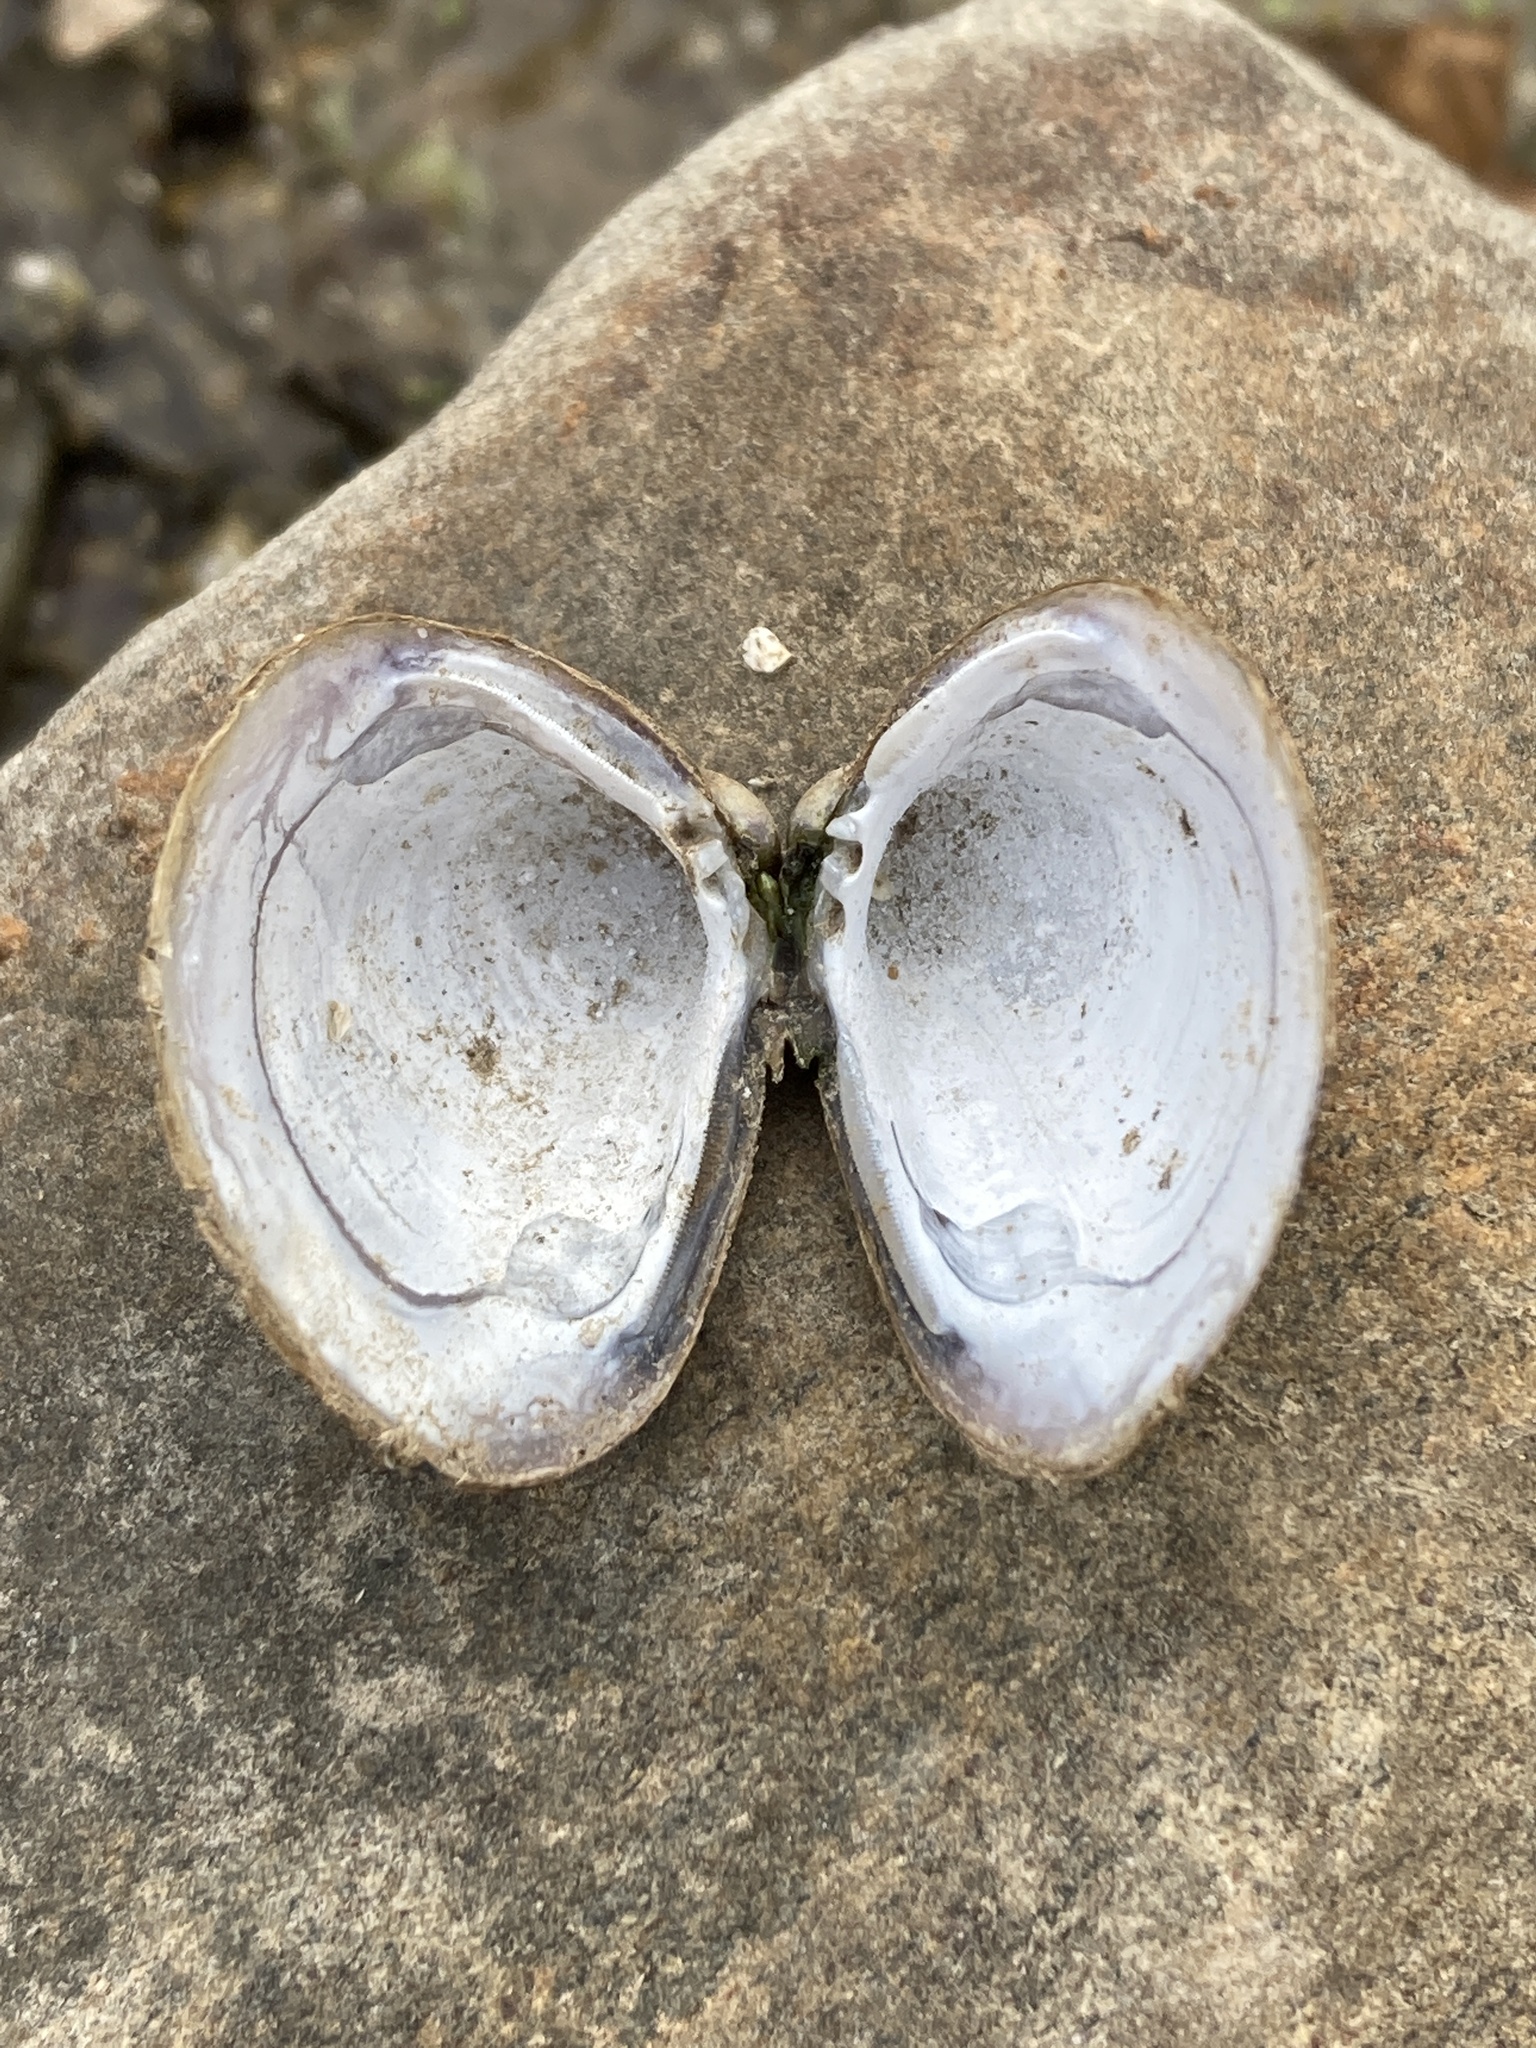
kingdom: Animalia
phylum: Mollusca
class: Bivalvia
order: Venerida
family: Cyrenidae
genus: Corbicula
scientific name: Corbicula fluminea
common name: Asian clam
